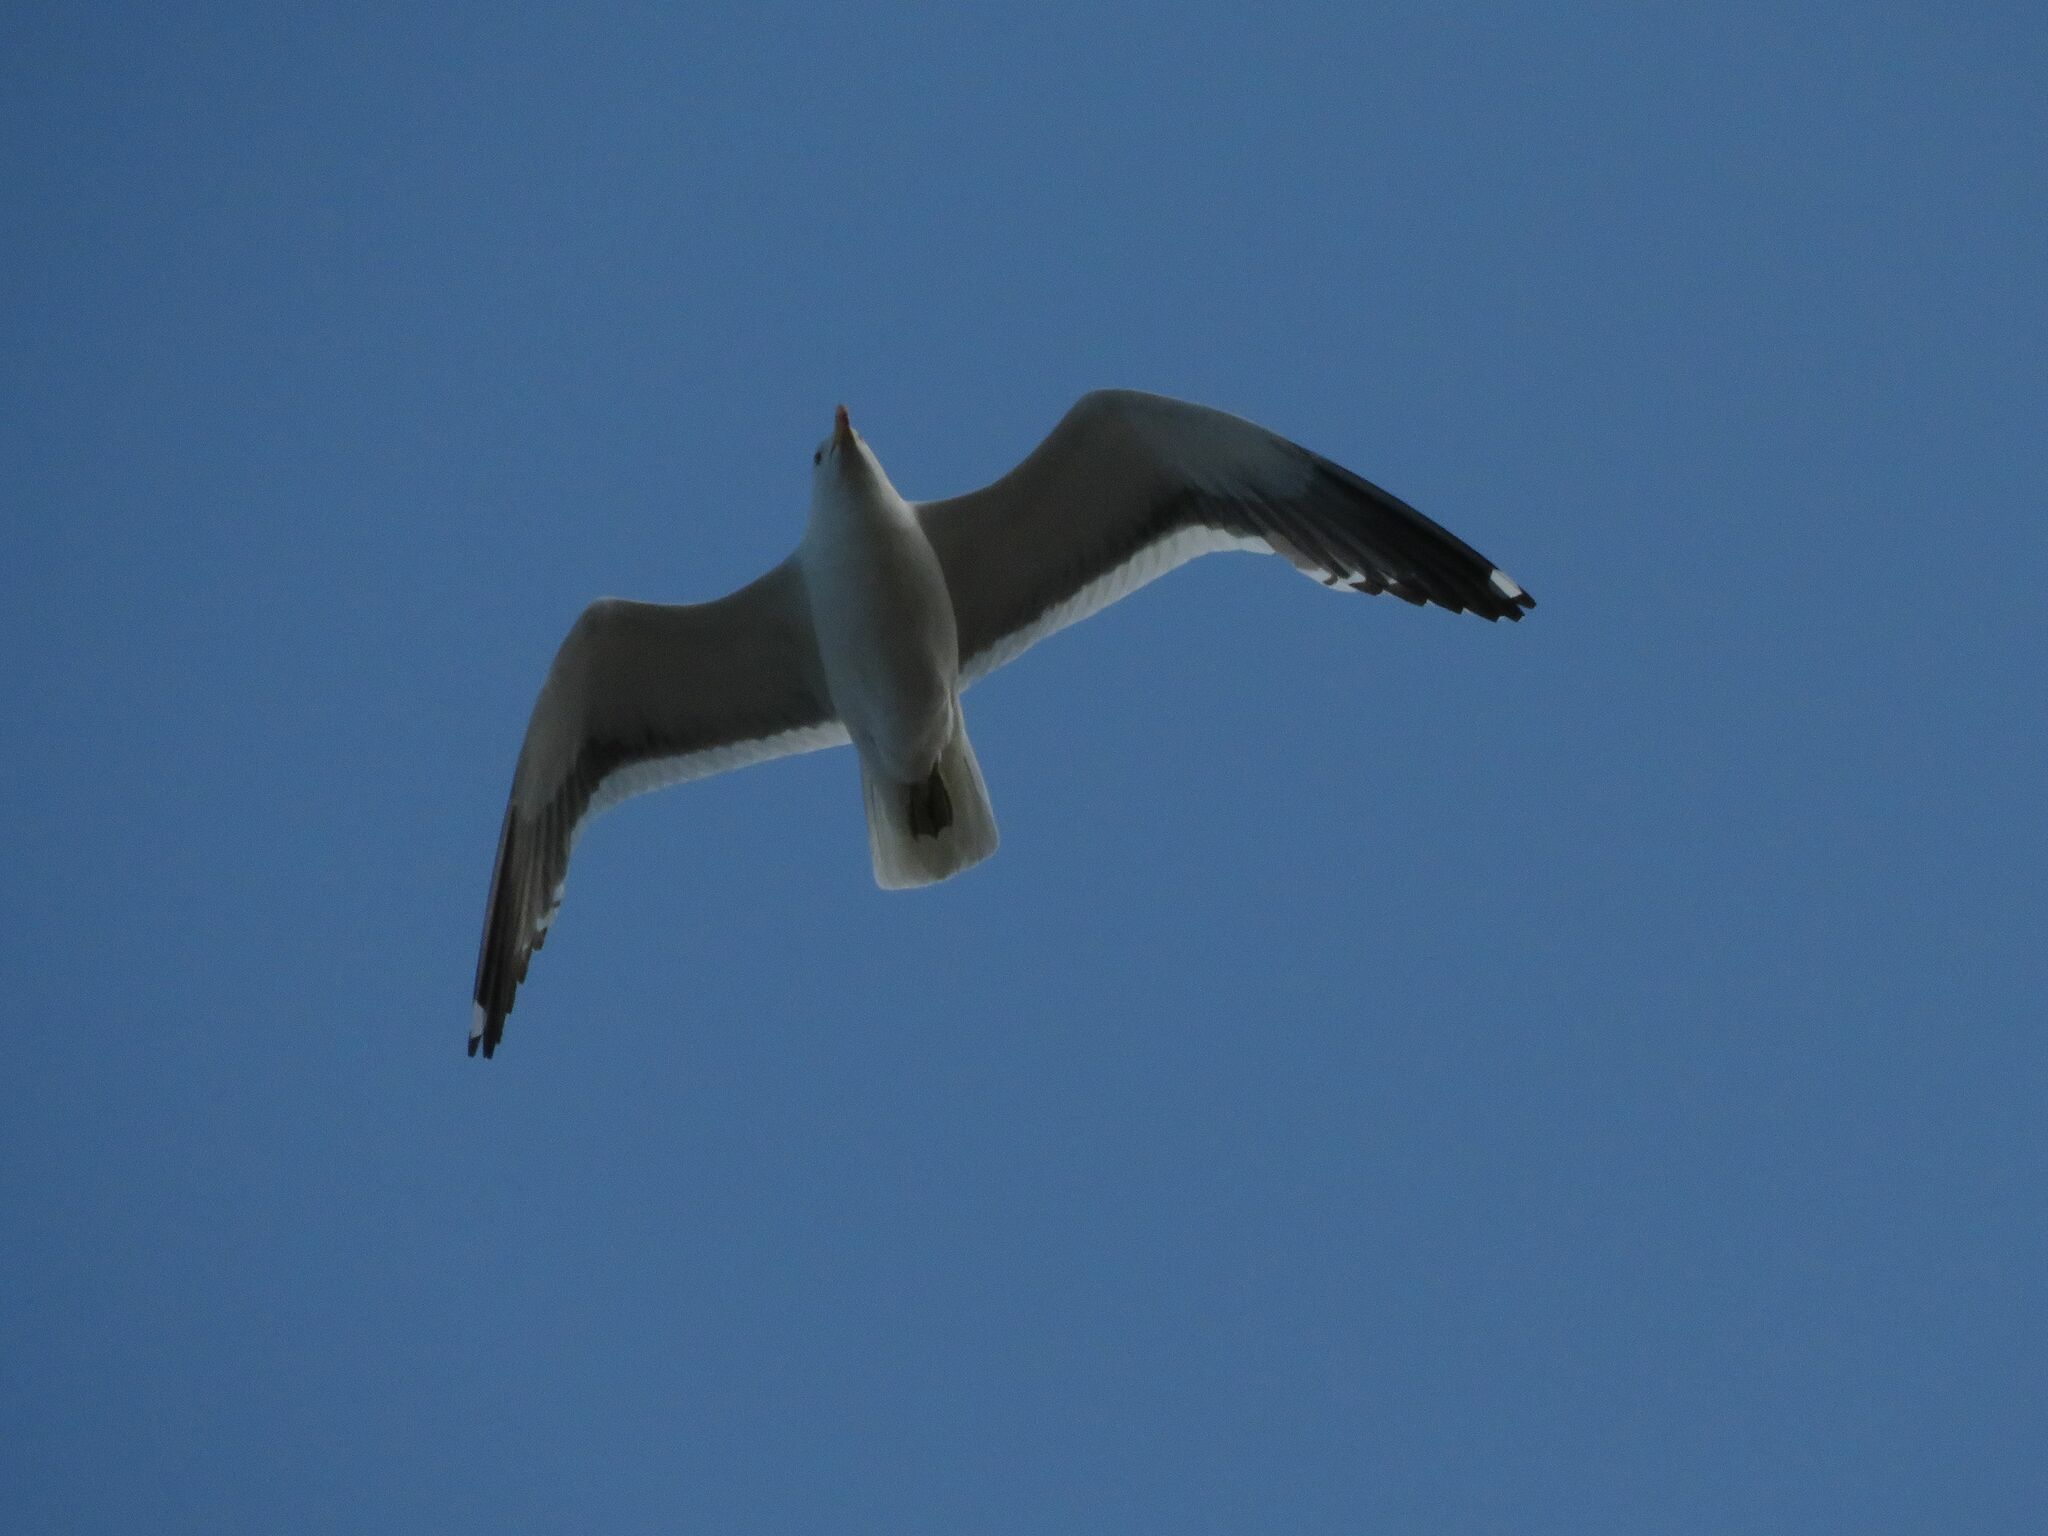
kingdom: Animalia
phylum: Chordata
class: Aves
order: Charadriiformes
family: Laridae
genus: Larus
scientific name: Larus dominicanus
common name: Kelp gull
